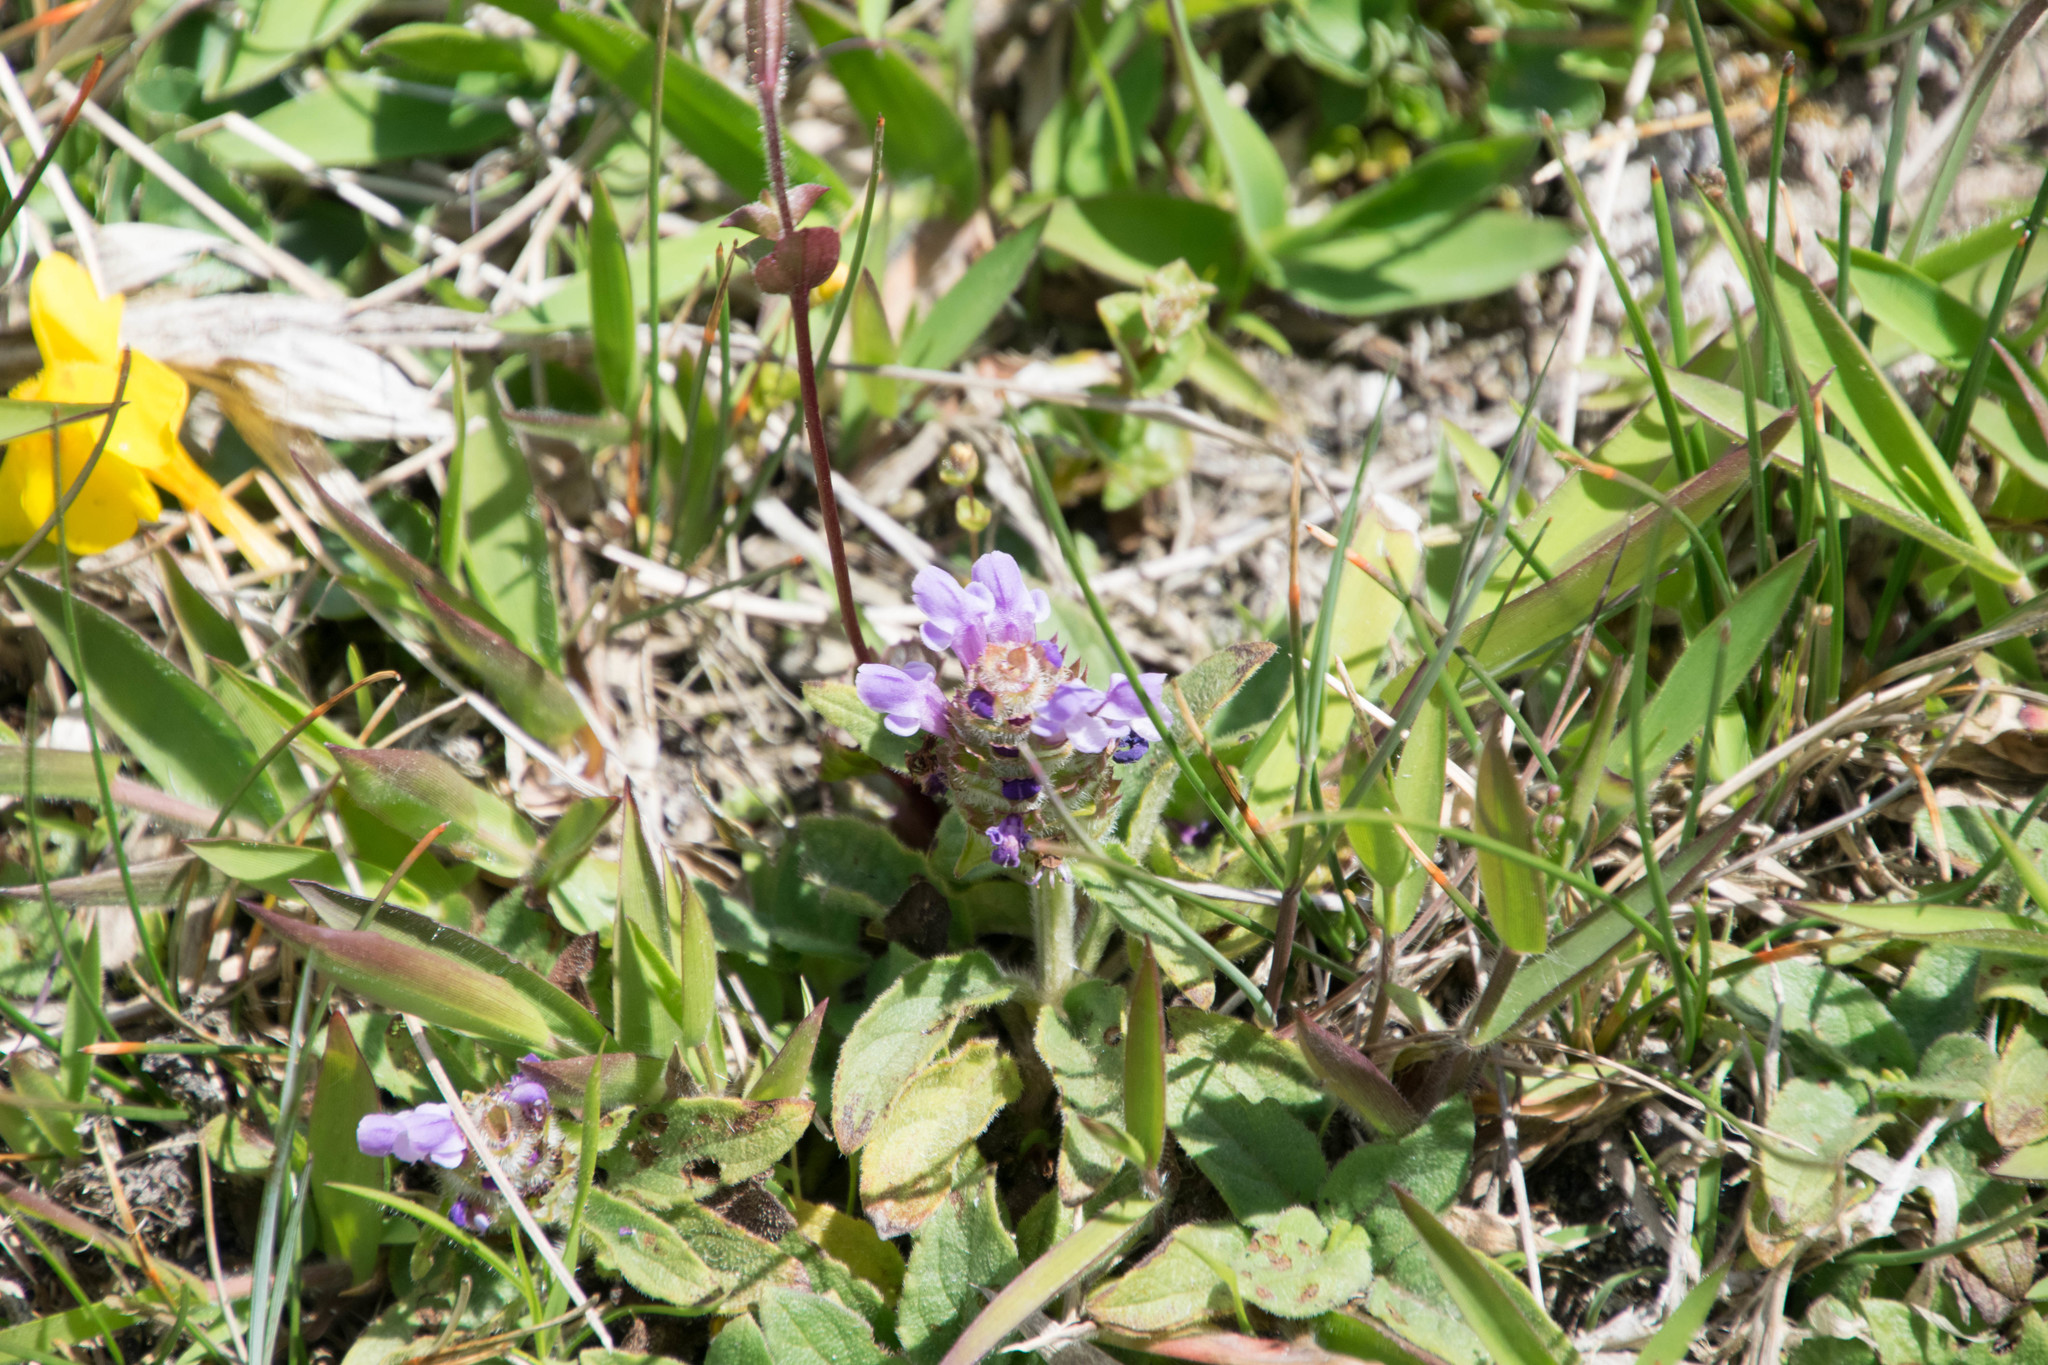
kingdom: Plantae
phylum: Tracheophyta
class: Magnoliopsida
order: Lamiales
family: Lamiaceae
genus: Prunella
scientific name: Prunella vulgaris
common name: Heal-all
